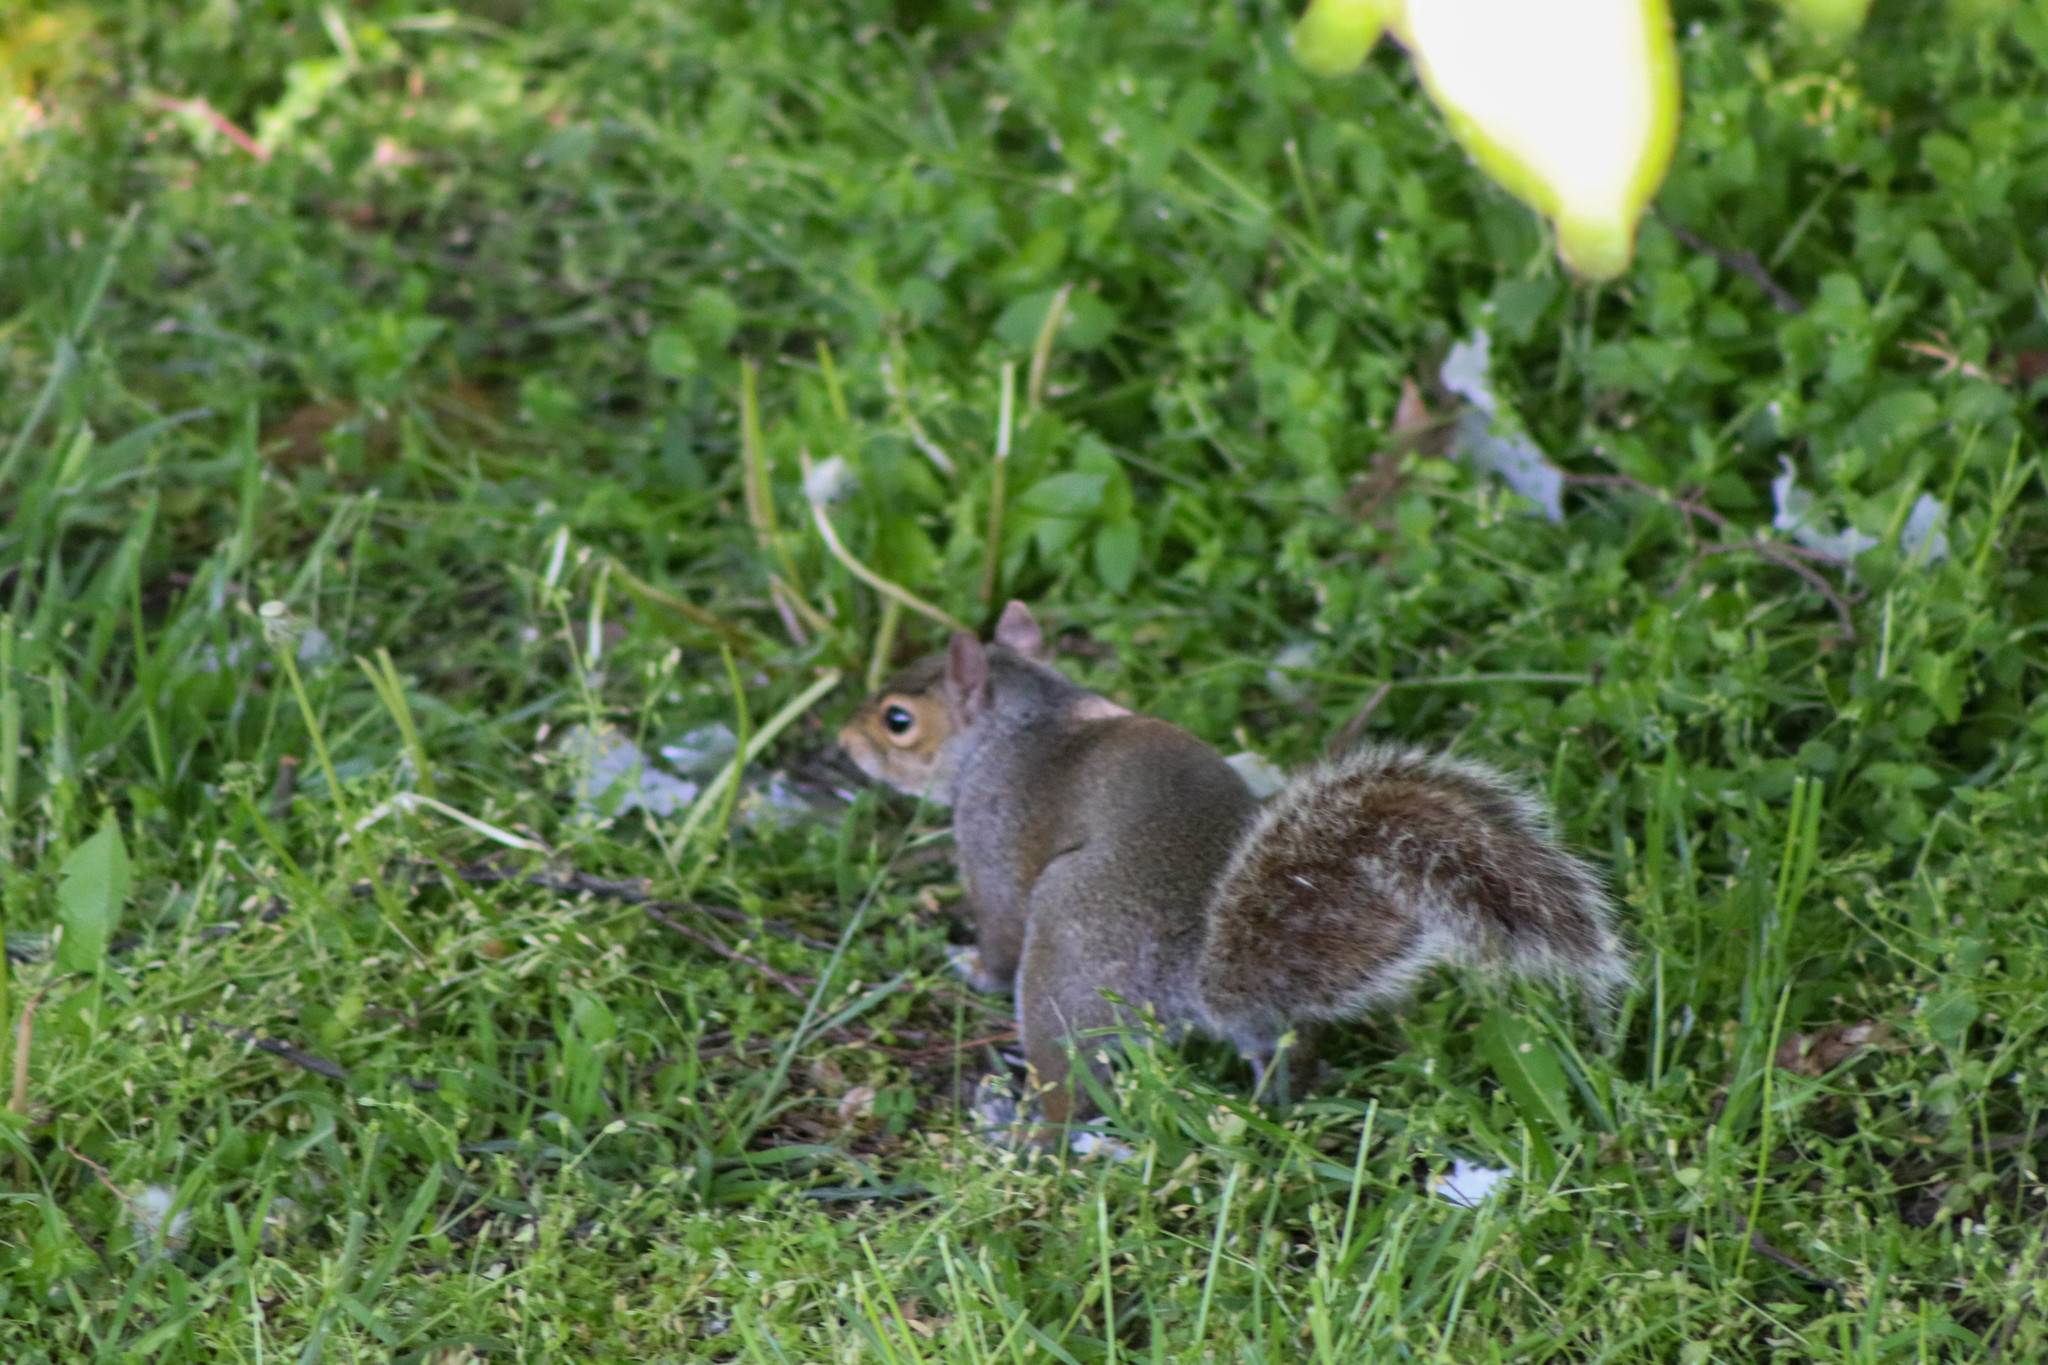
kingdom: Animalia
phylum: Chordata
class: Mammalia
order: Rodentia
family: Sciuridae
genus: Sciurus
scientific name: Sciurus carolinensis
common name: Eastern gray squirrel
